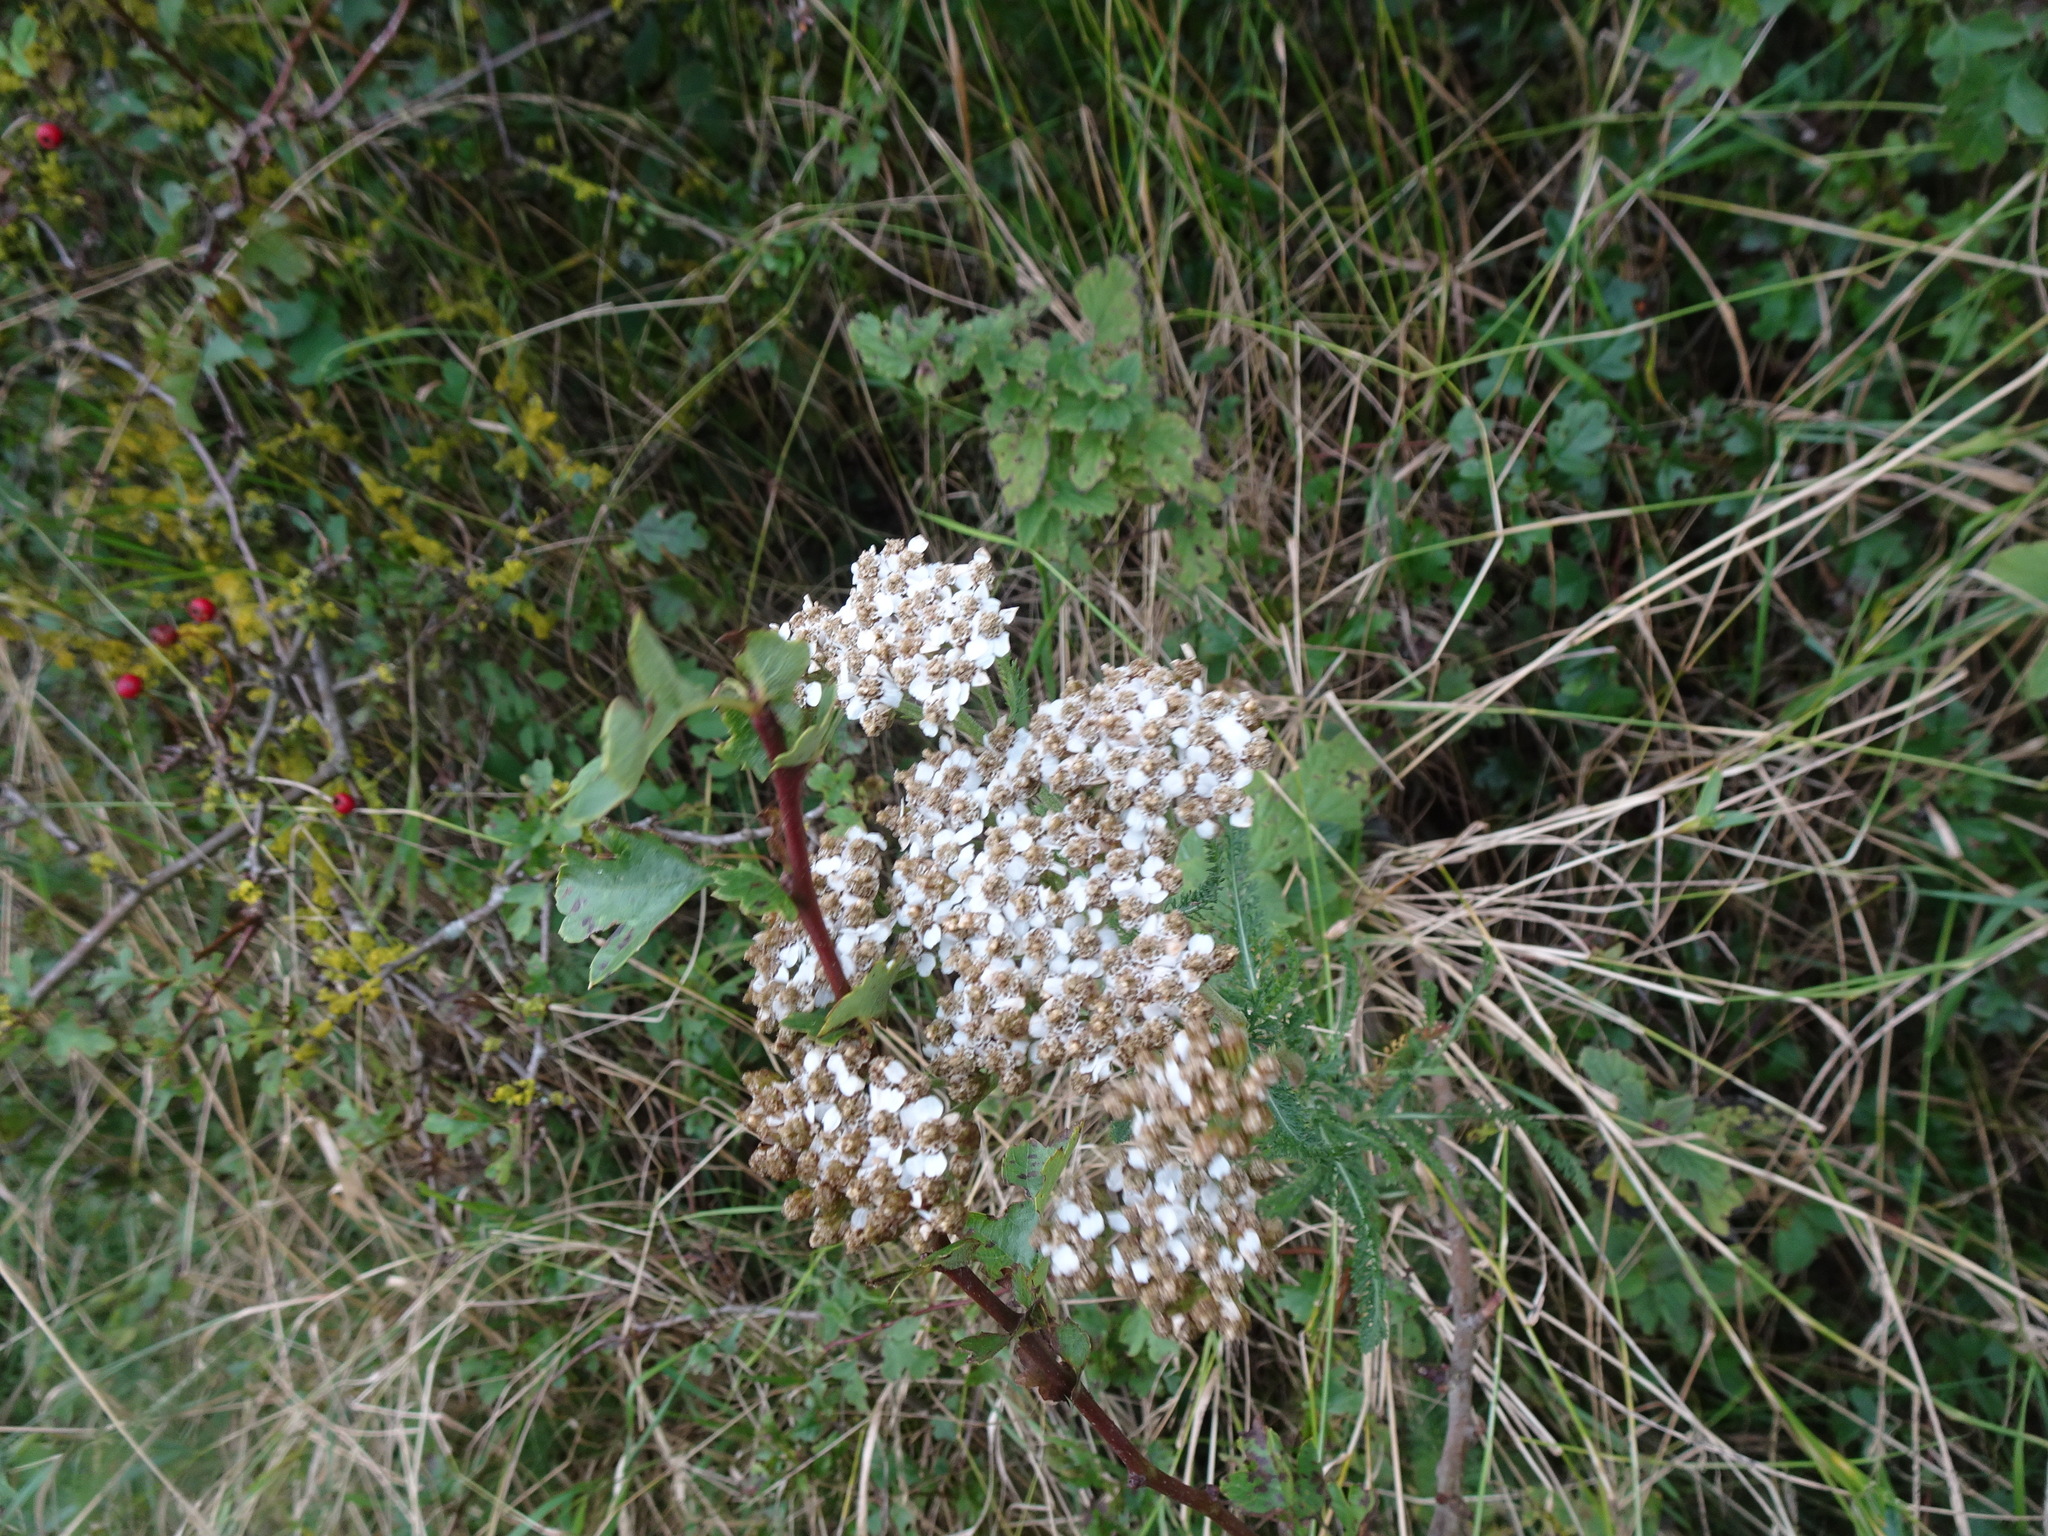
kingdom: Plantae
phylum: Tracheophyta
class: Magnoliopsida
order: Asterales
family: Asteraceae
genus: Achillea
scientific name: Achillea millefolium
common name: Yarrow
